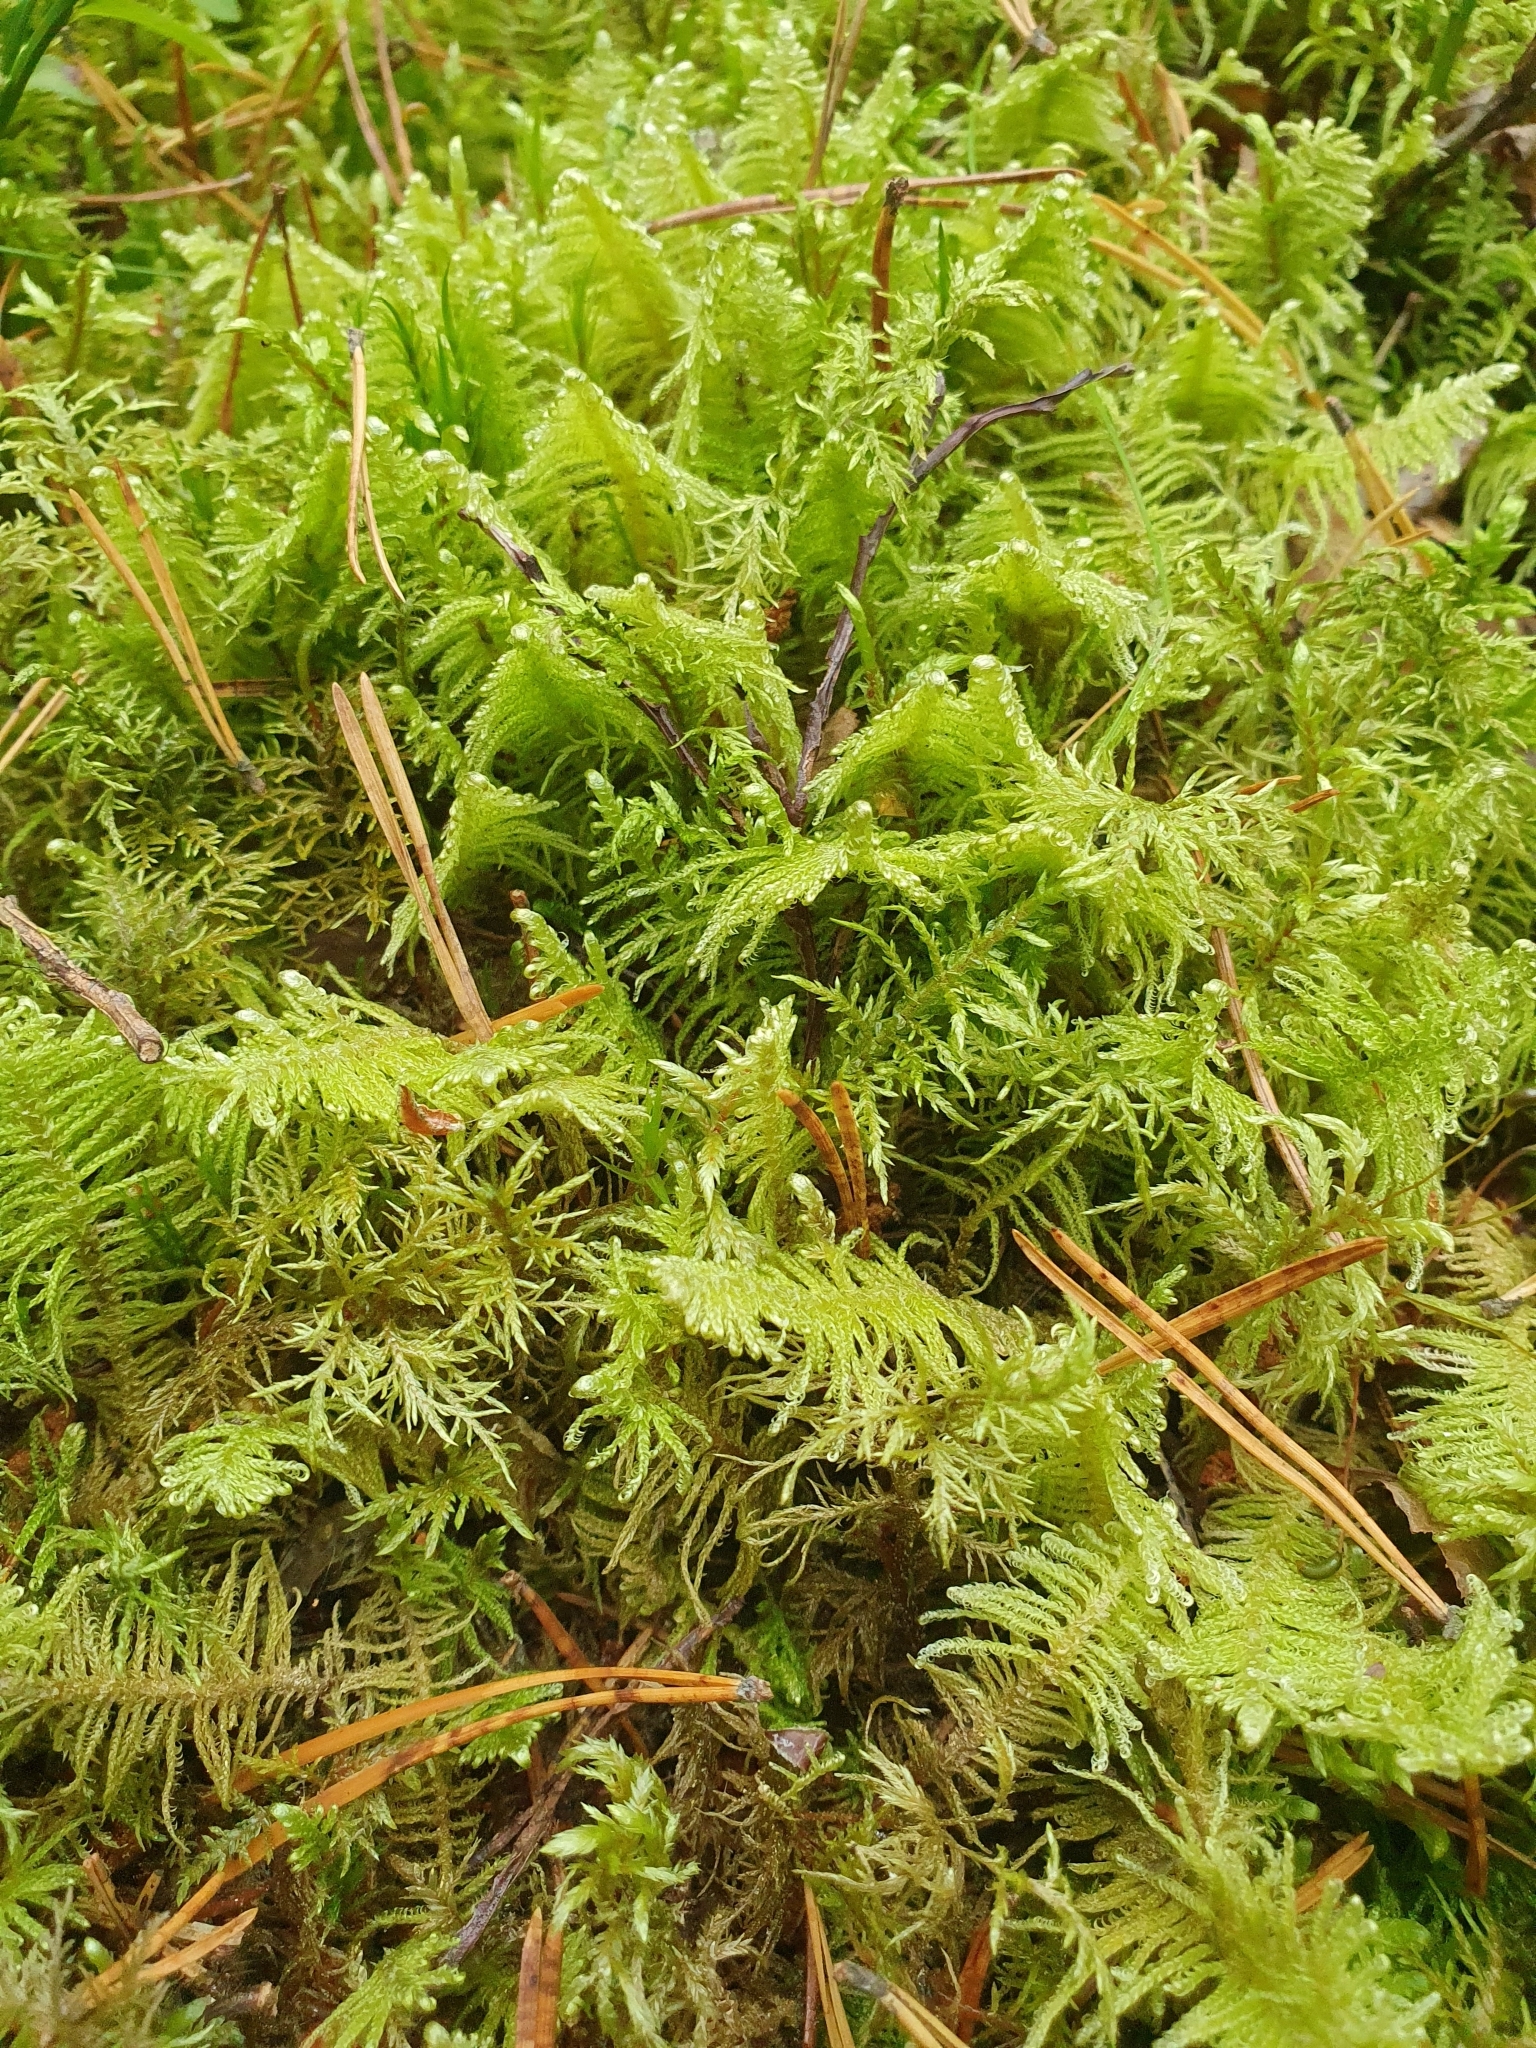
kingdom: Plantae
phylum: Bryophyta
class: Bryopsida
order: Hypnales
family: Pylaisiaceae
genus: Ptilium
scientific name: Ptilium crista-castrensis
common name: Knight's plume moss
